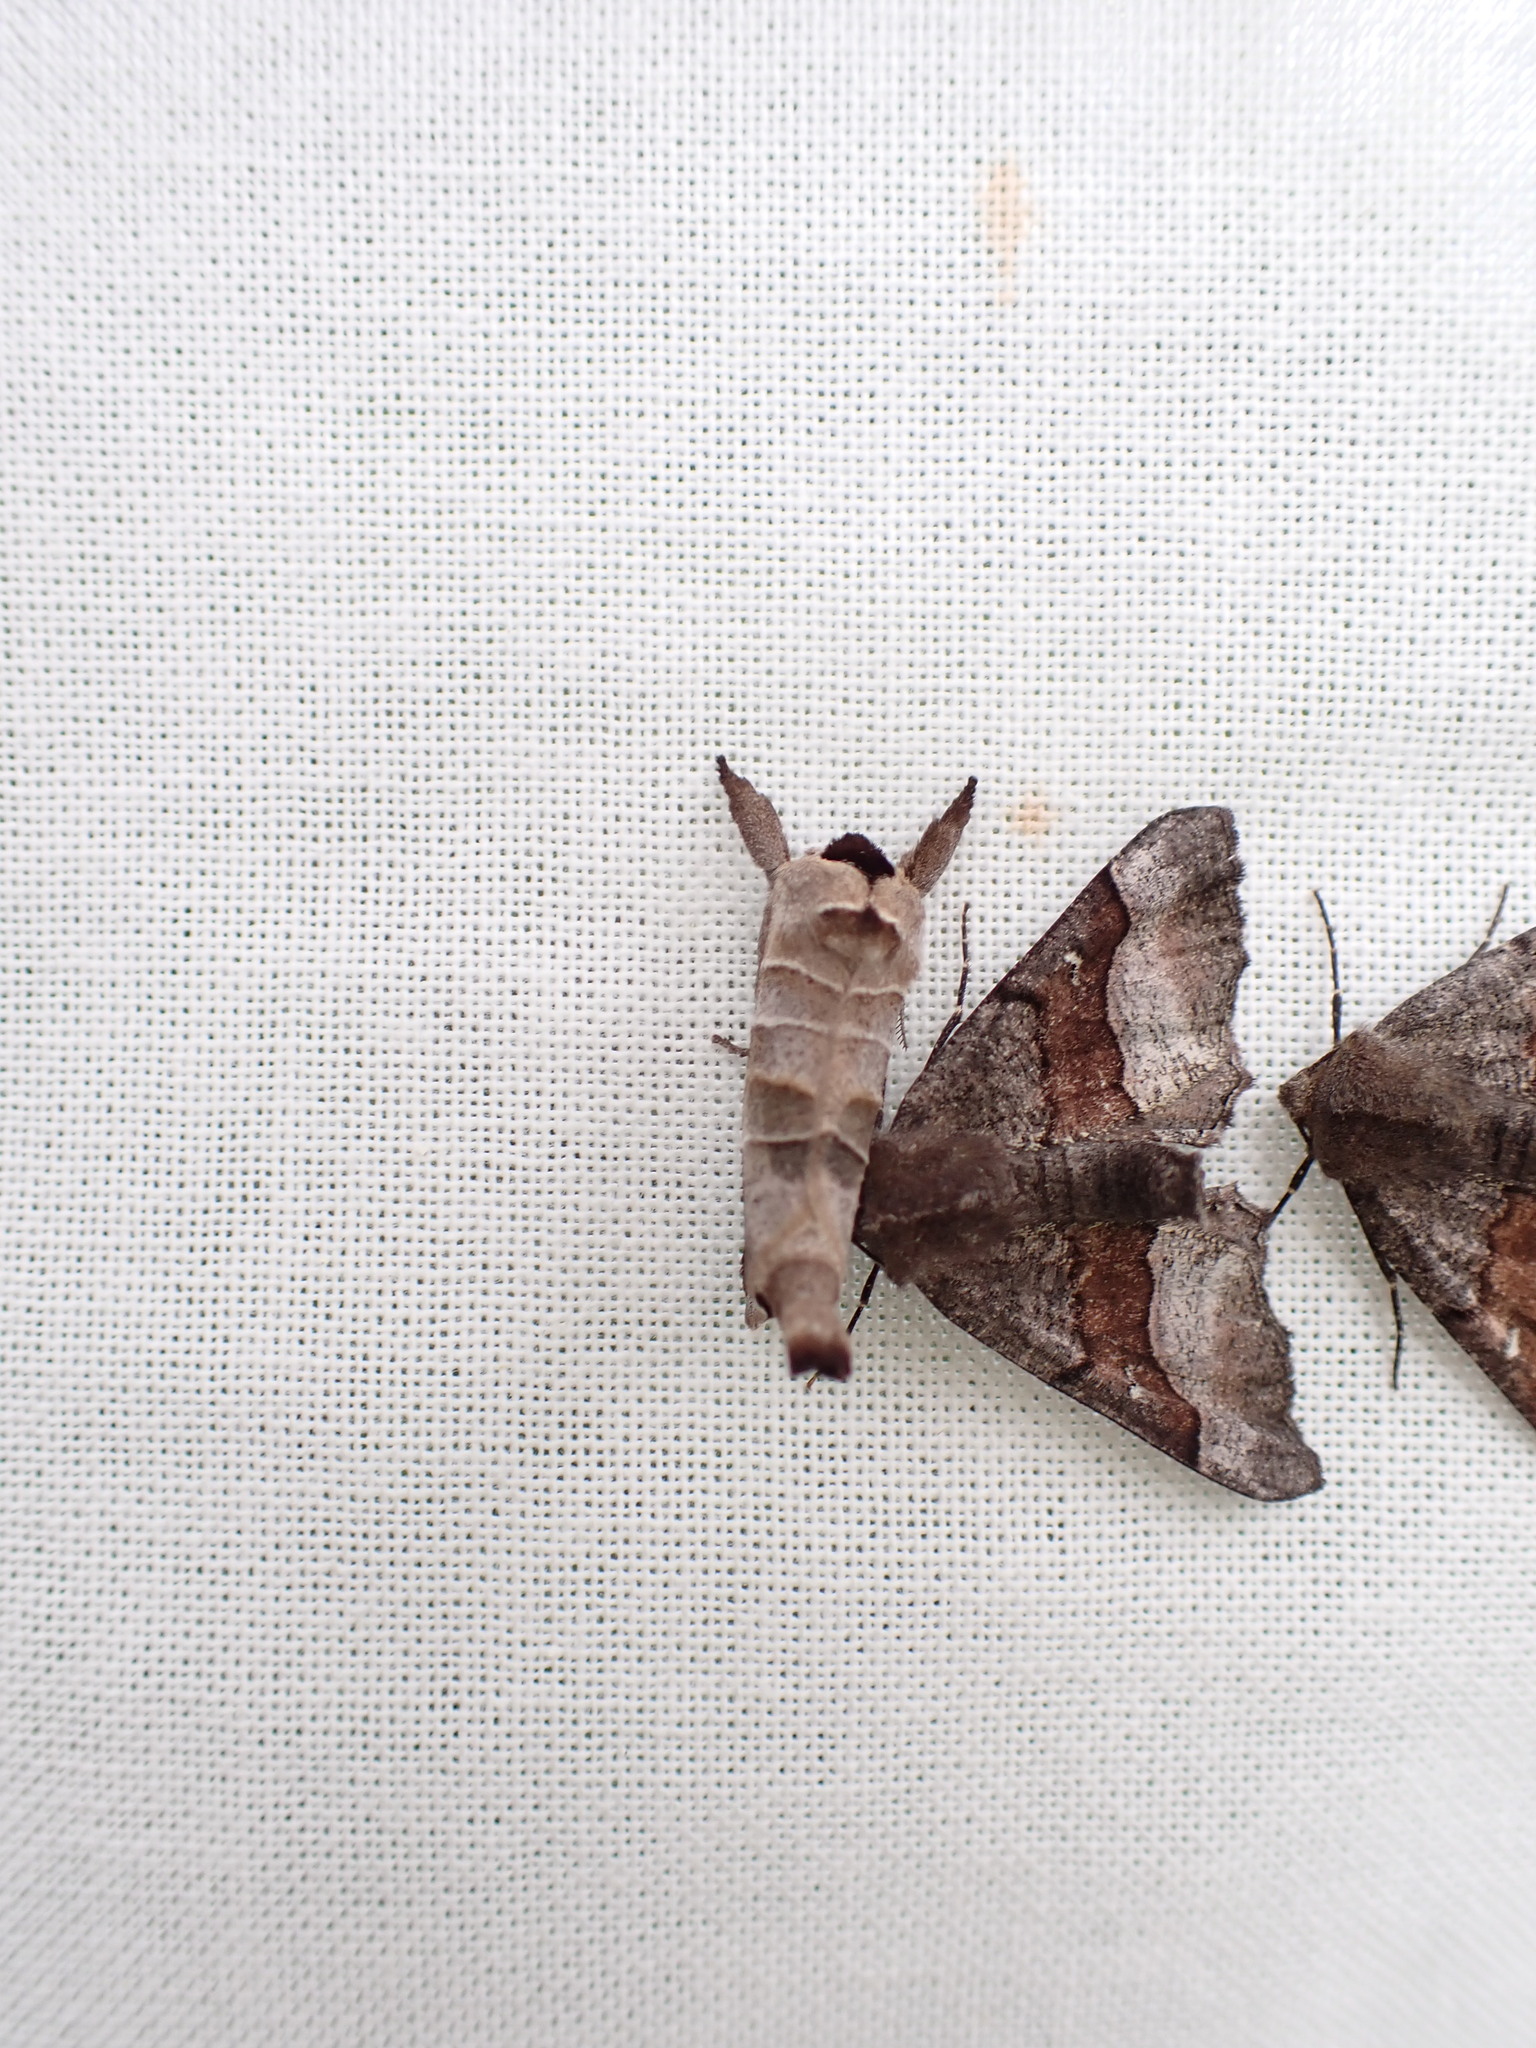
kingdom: Animalia
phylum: Arthropoda
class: Insecta
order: Lepidoptera
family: Notodontidae
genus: Clostera
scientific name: Clostera albosigma
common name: Sigmoid prominent
